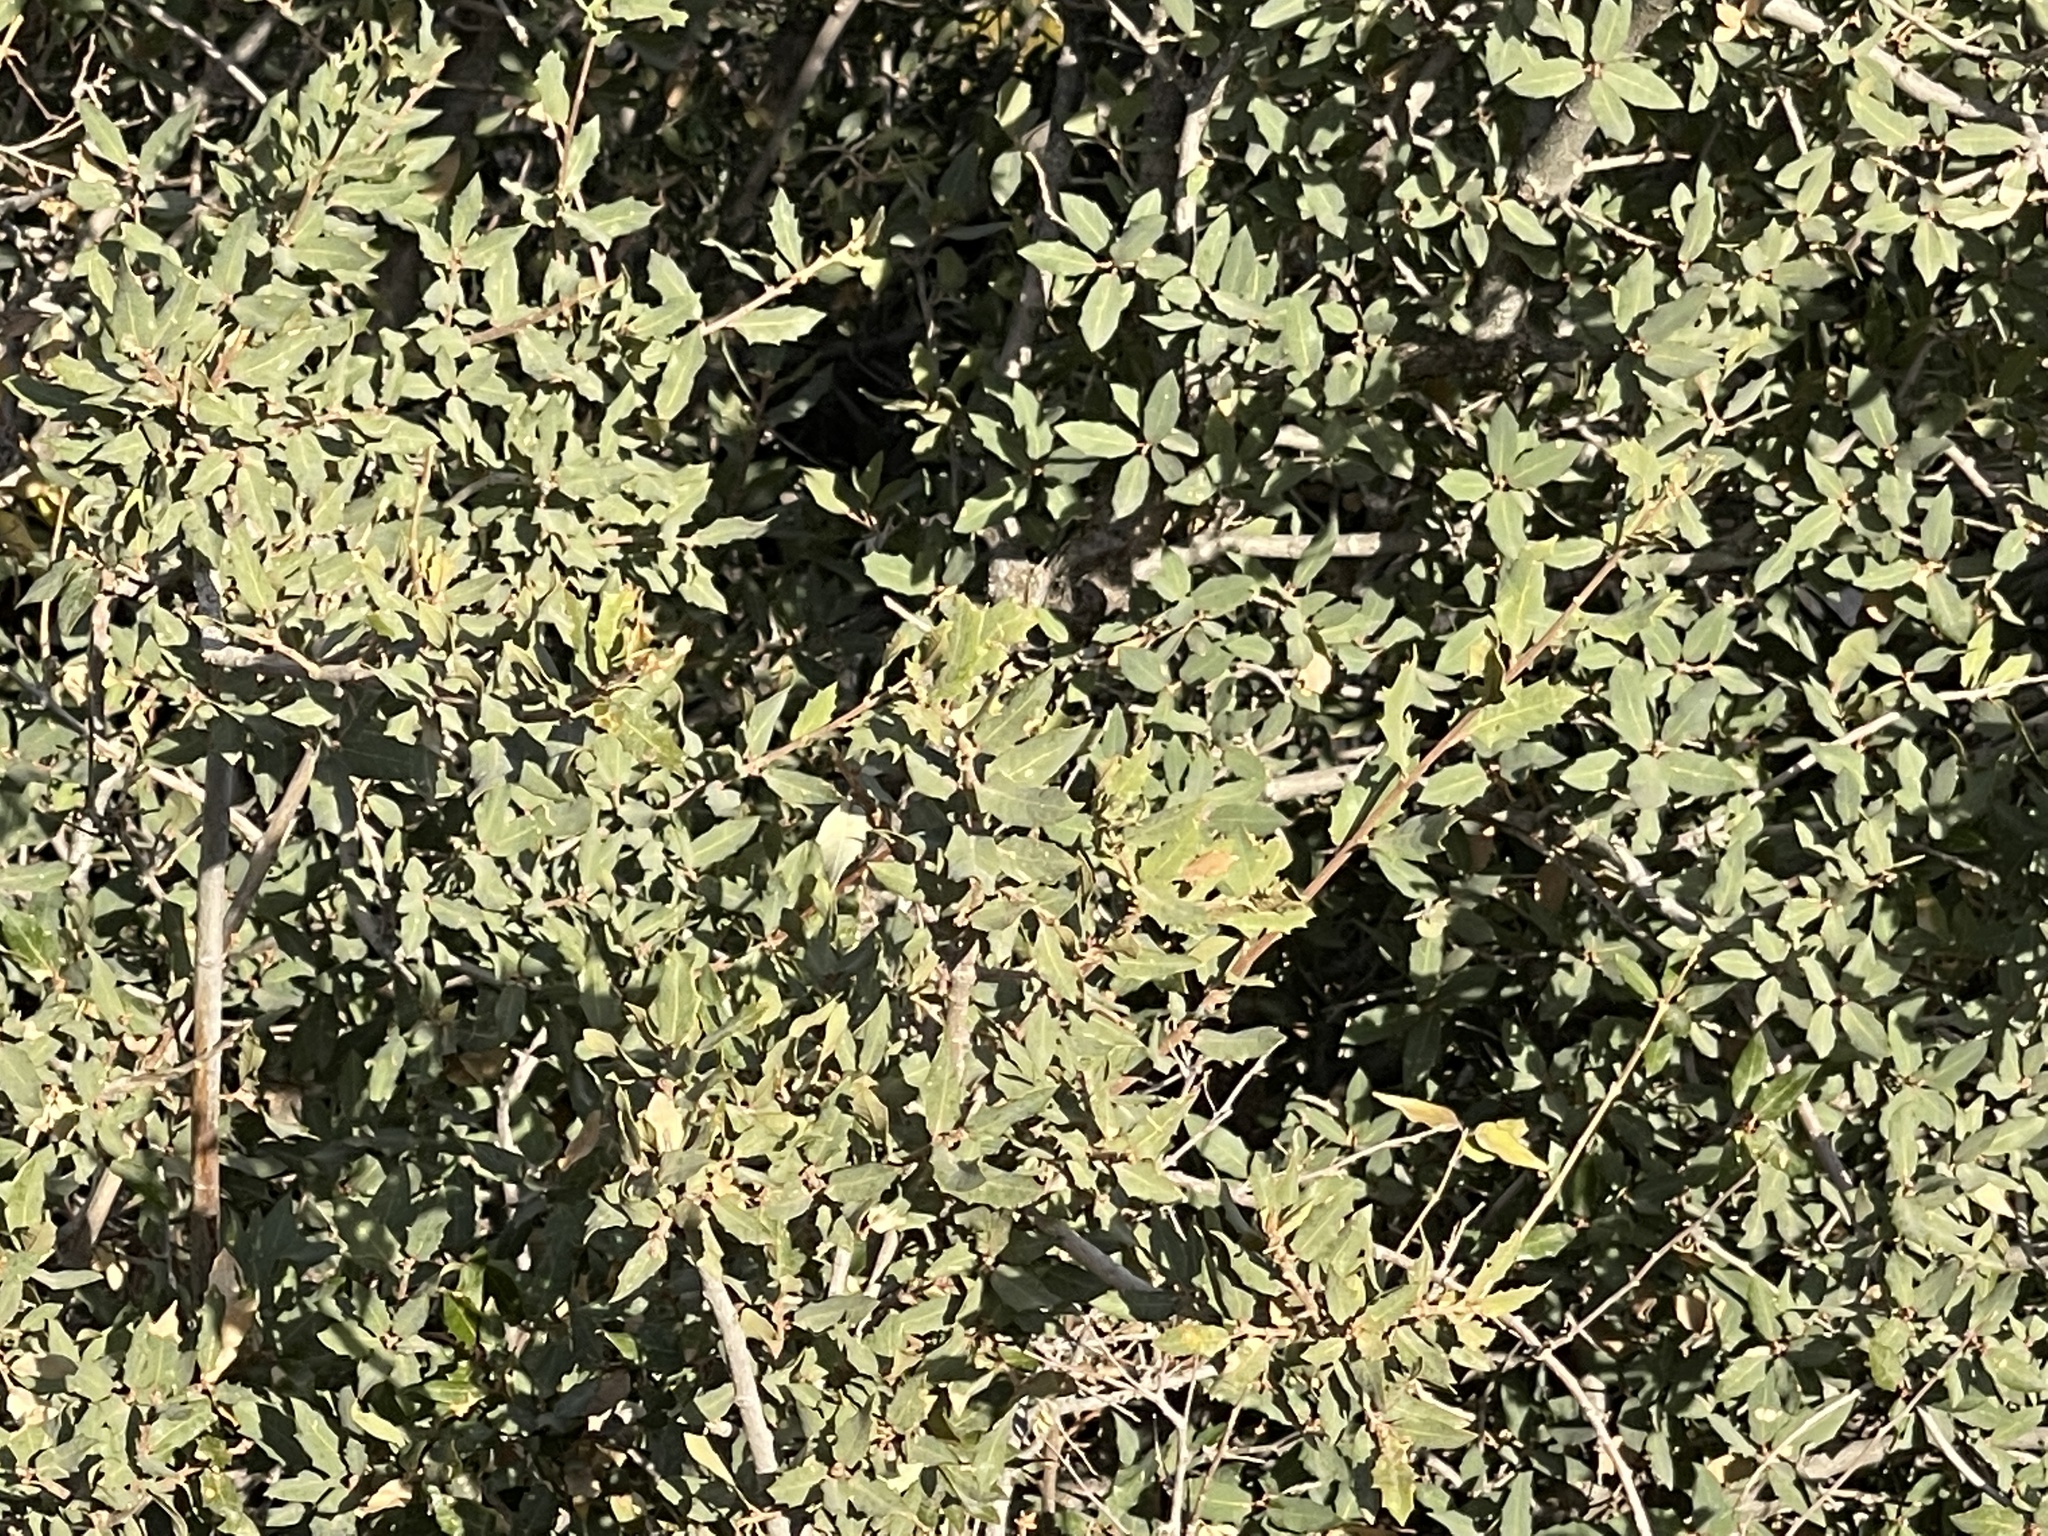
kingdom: Plantae
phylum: Tracheophyta
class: Magnoliopsida
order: Fagales
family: Fagaceae
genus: Quercus
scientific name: Quercus grisea
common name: Gray oak
